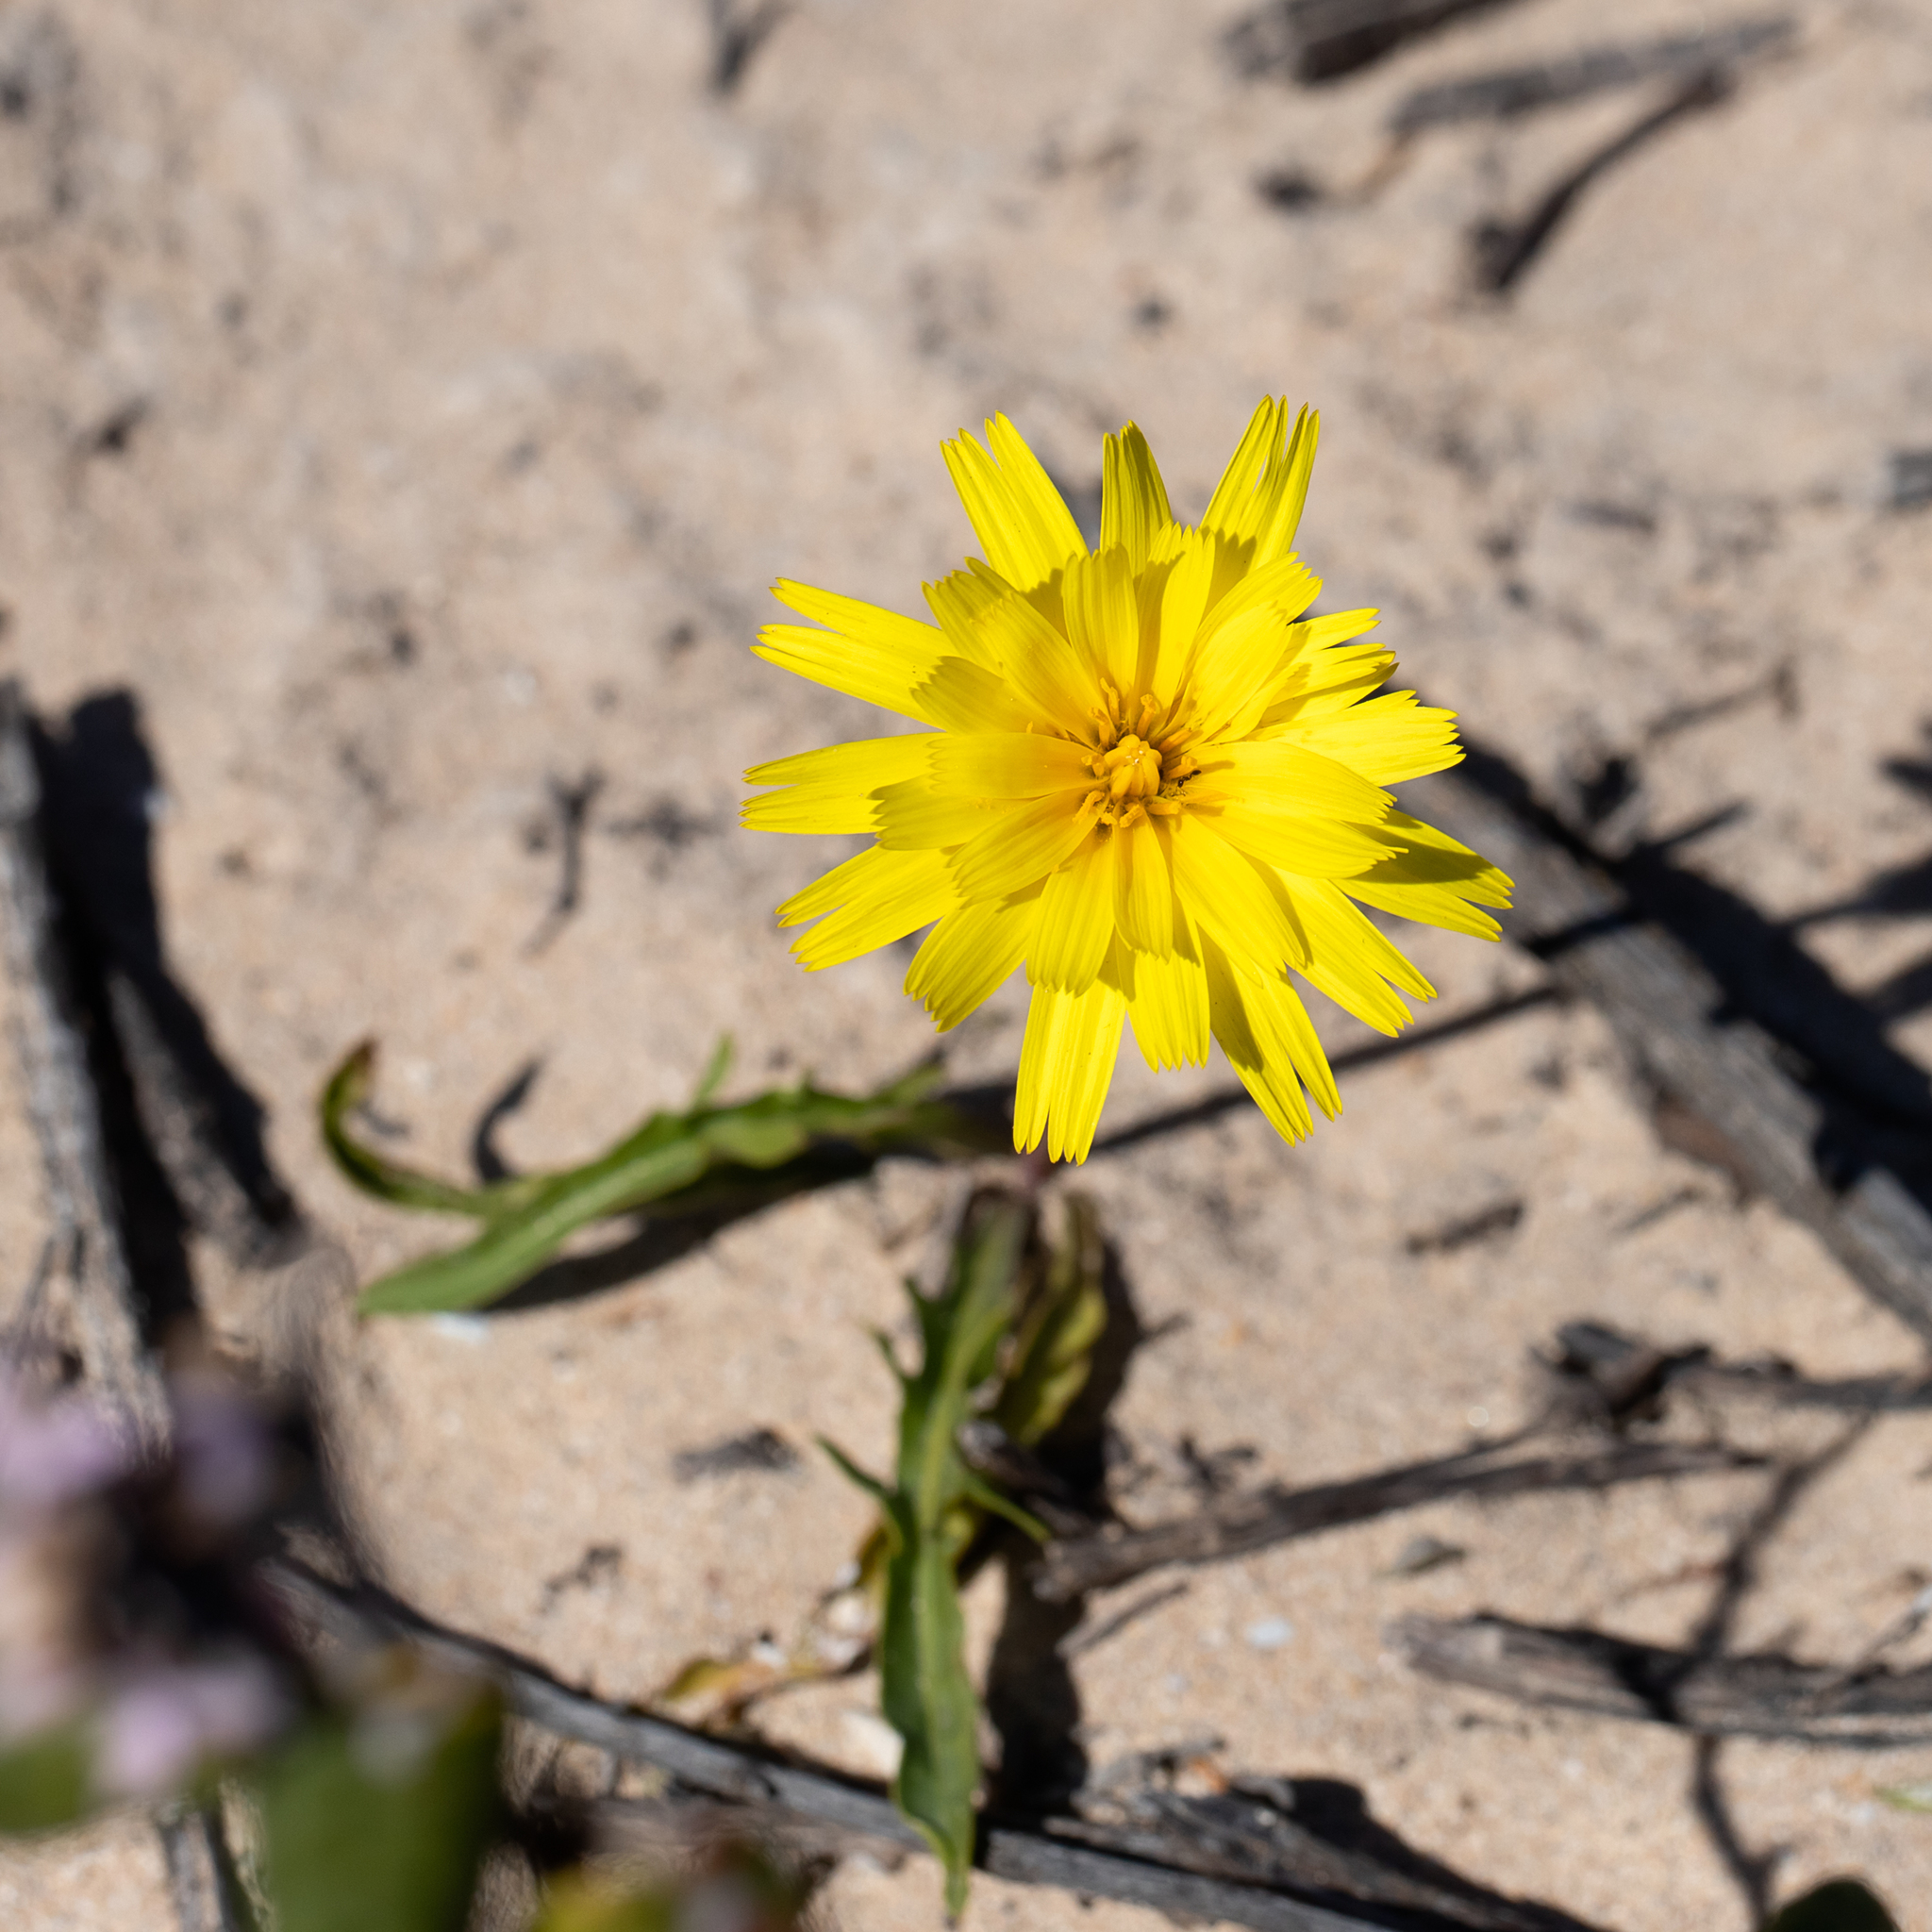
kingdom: Plantae
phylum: Tracheophyta
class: Magnoliopsida
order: Asterales
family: Asteraceae
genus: Microseris
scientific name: Microseris lanceolata
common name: Yam daisy
